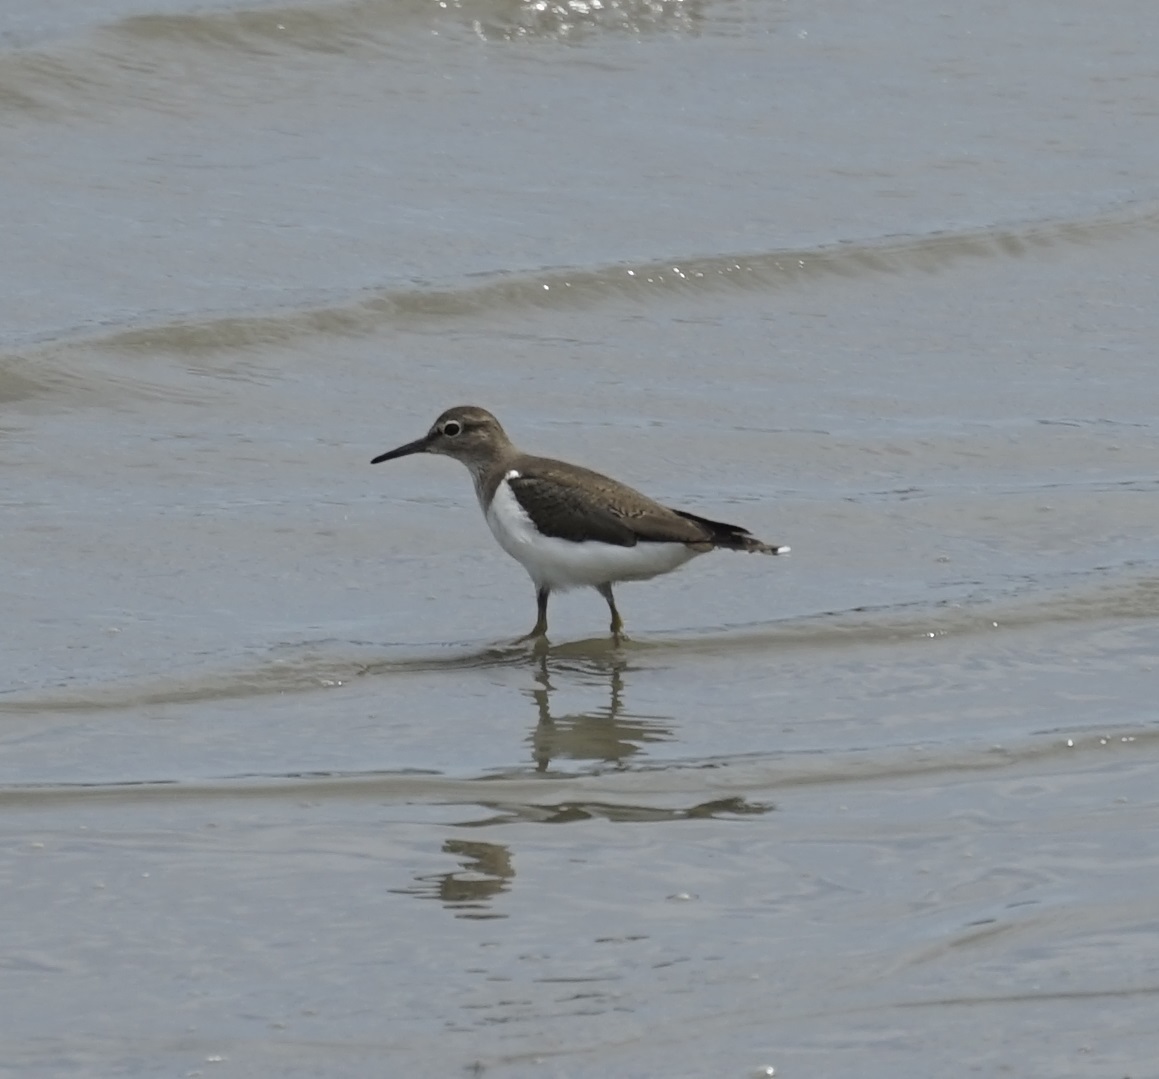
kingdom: Animalia
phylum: Chordata
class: Aves
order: Charadriiformes
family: Scolopacidae
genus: Actitis
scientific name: Actitis hypoleucos
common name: Common sandpiper
